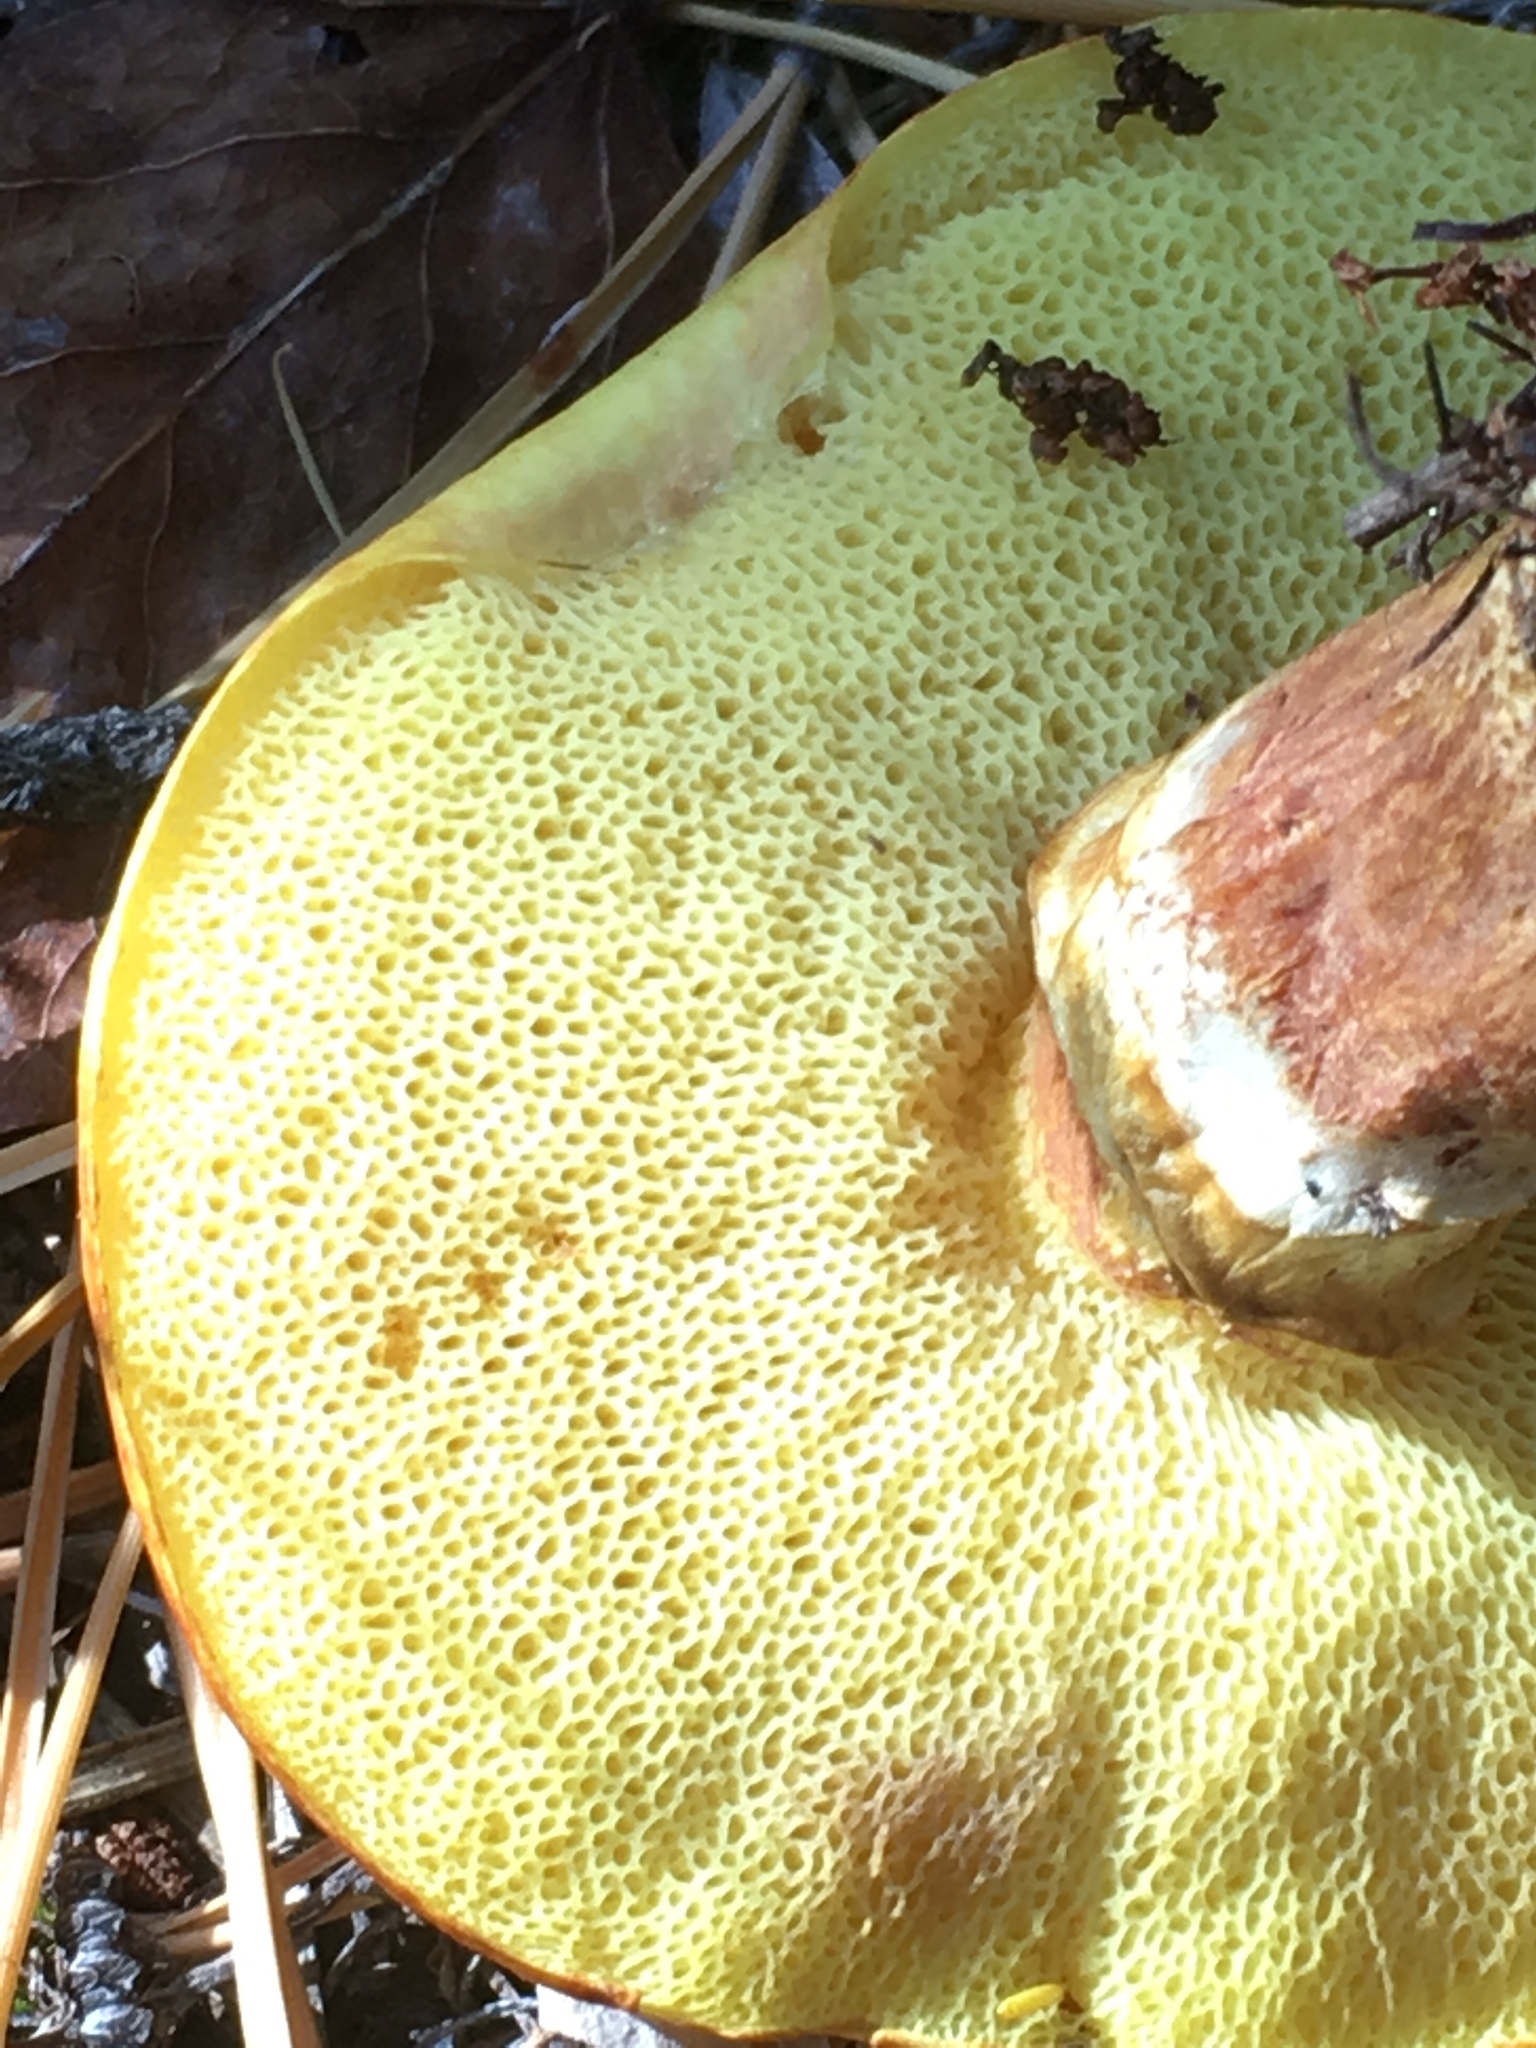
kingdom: Fungi
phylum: Basidiomycota
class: Agaricomycetes
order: Boletales
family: Suillaceae
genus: Suillus
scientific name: Suillus grevillei
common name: Larch bolete
